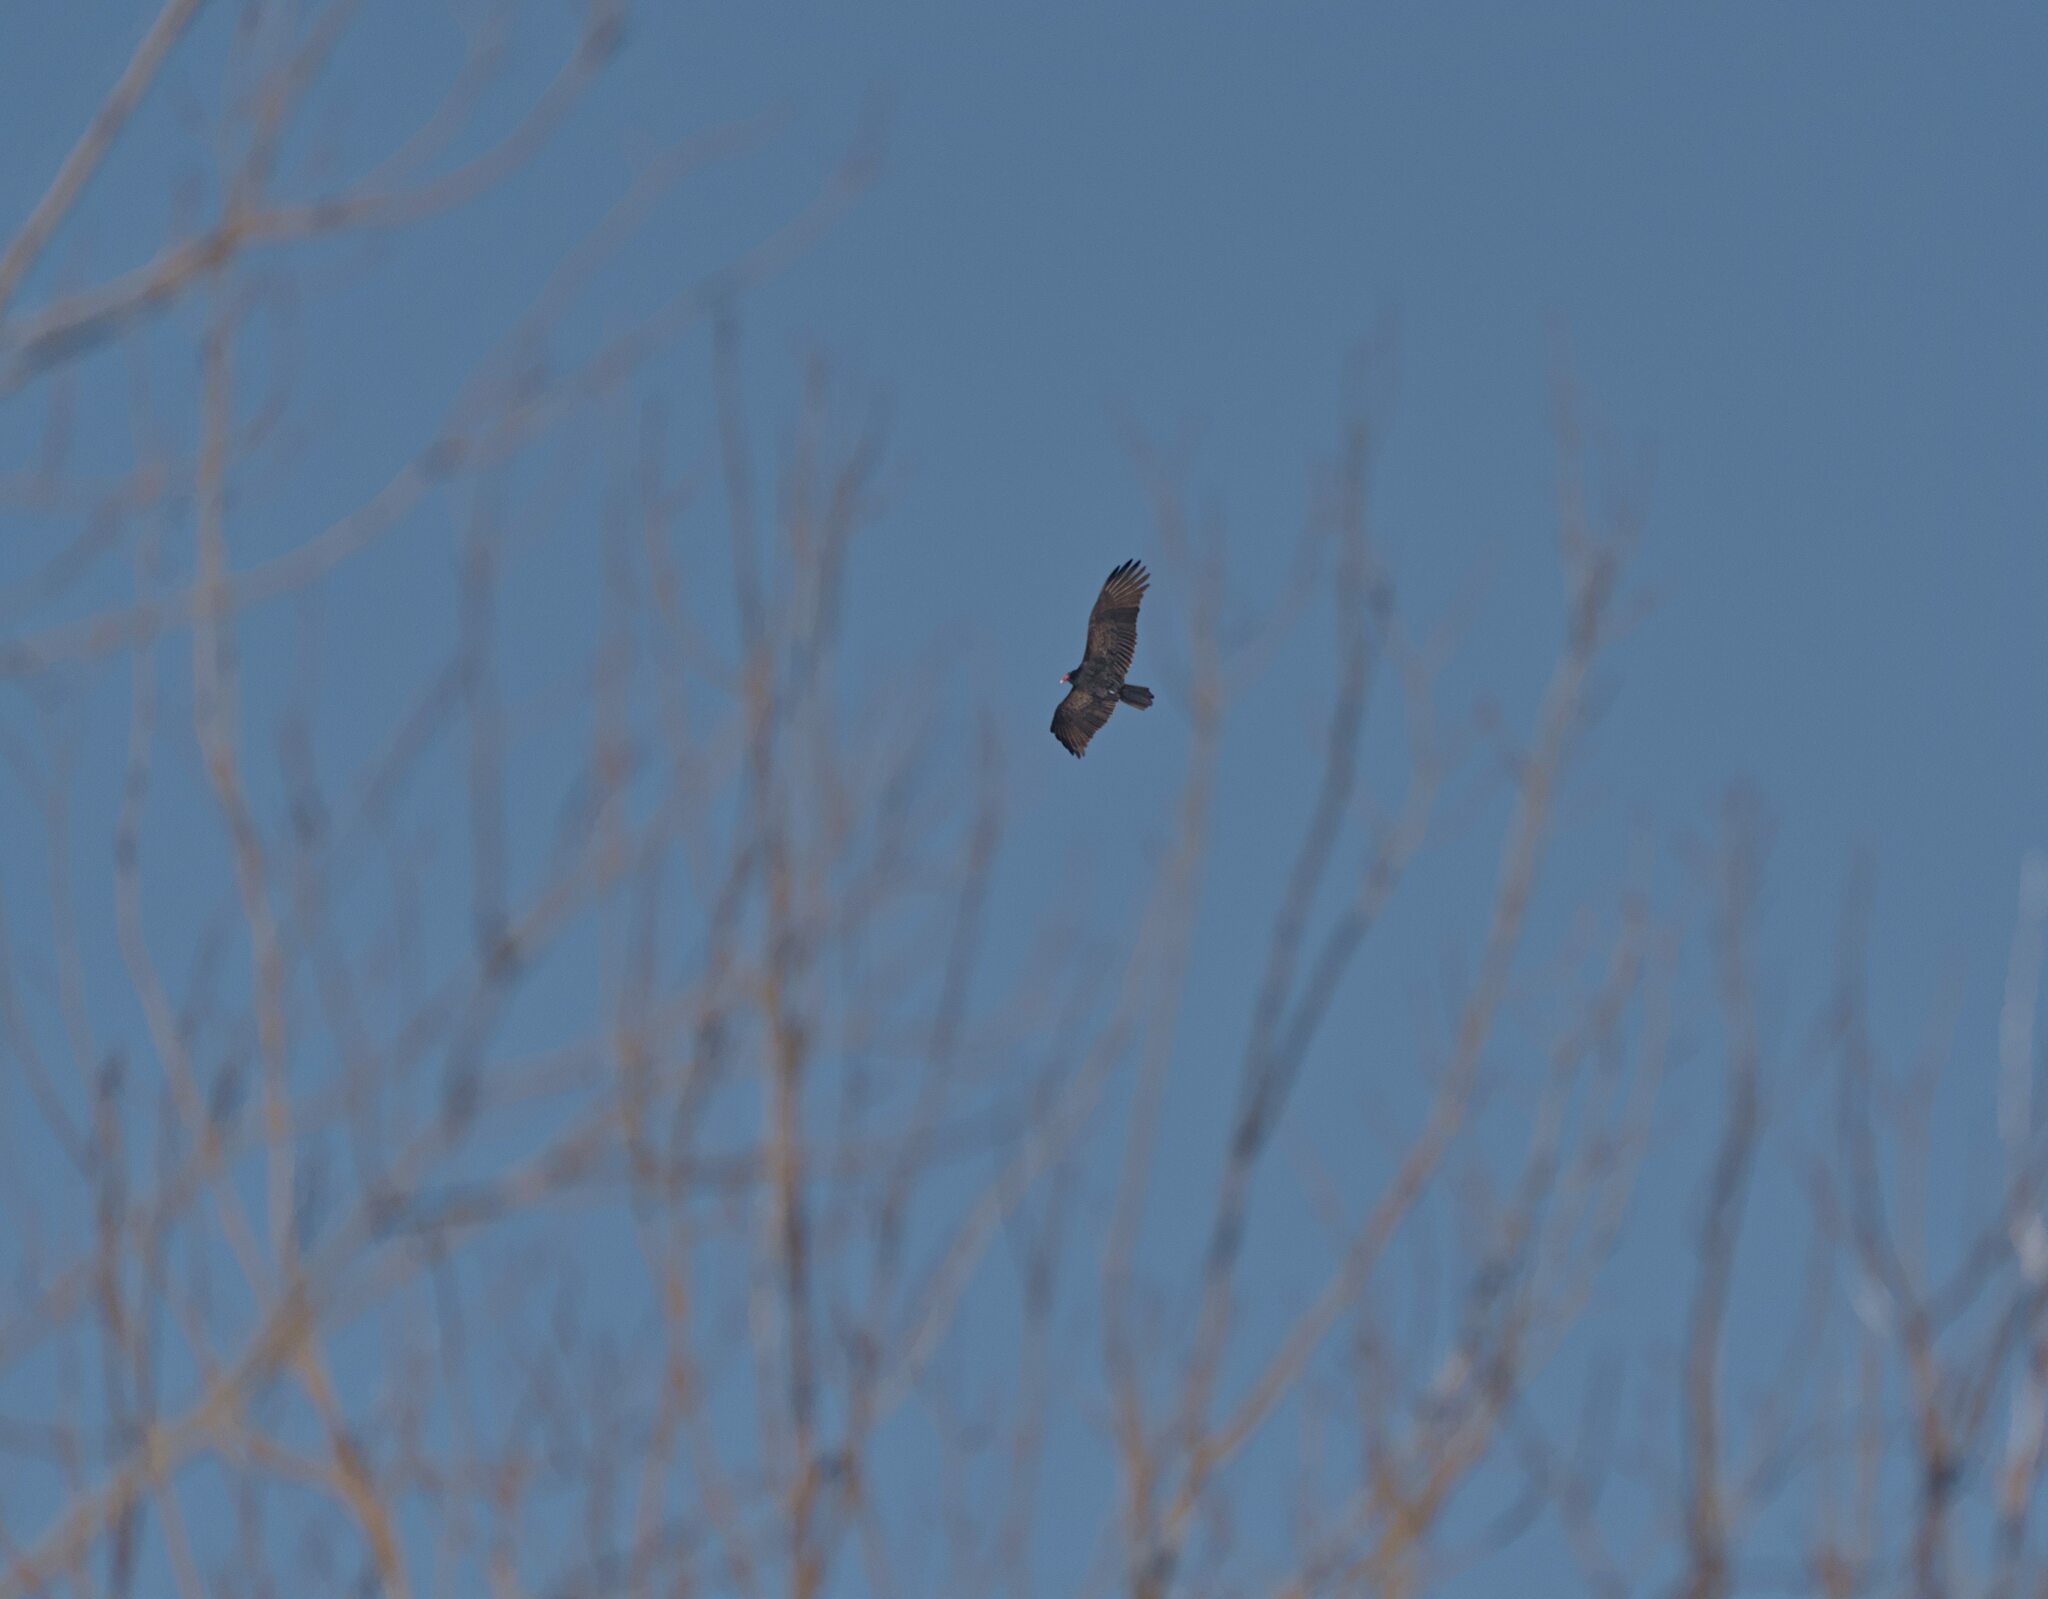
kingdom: Animalia
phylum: Chordata
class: Aves
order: Accipitriformes
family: Cathartidae
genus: Cathartes
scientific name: Cathartes aura
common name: Turkey vulture
